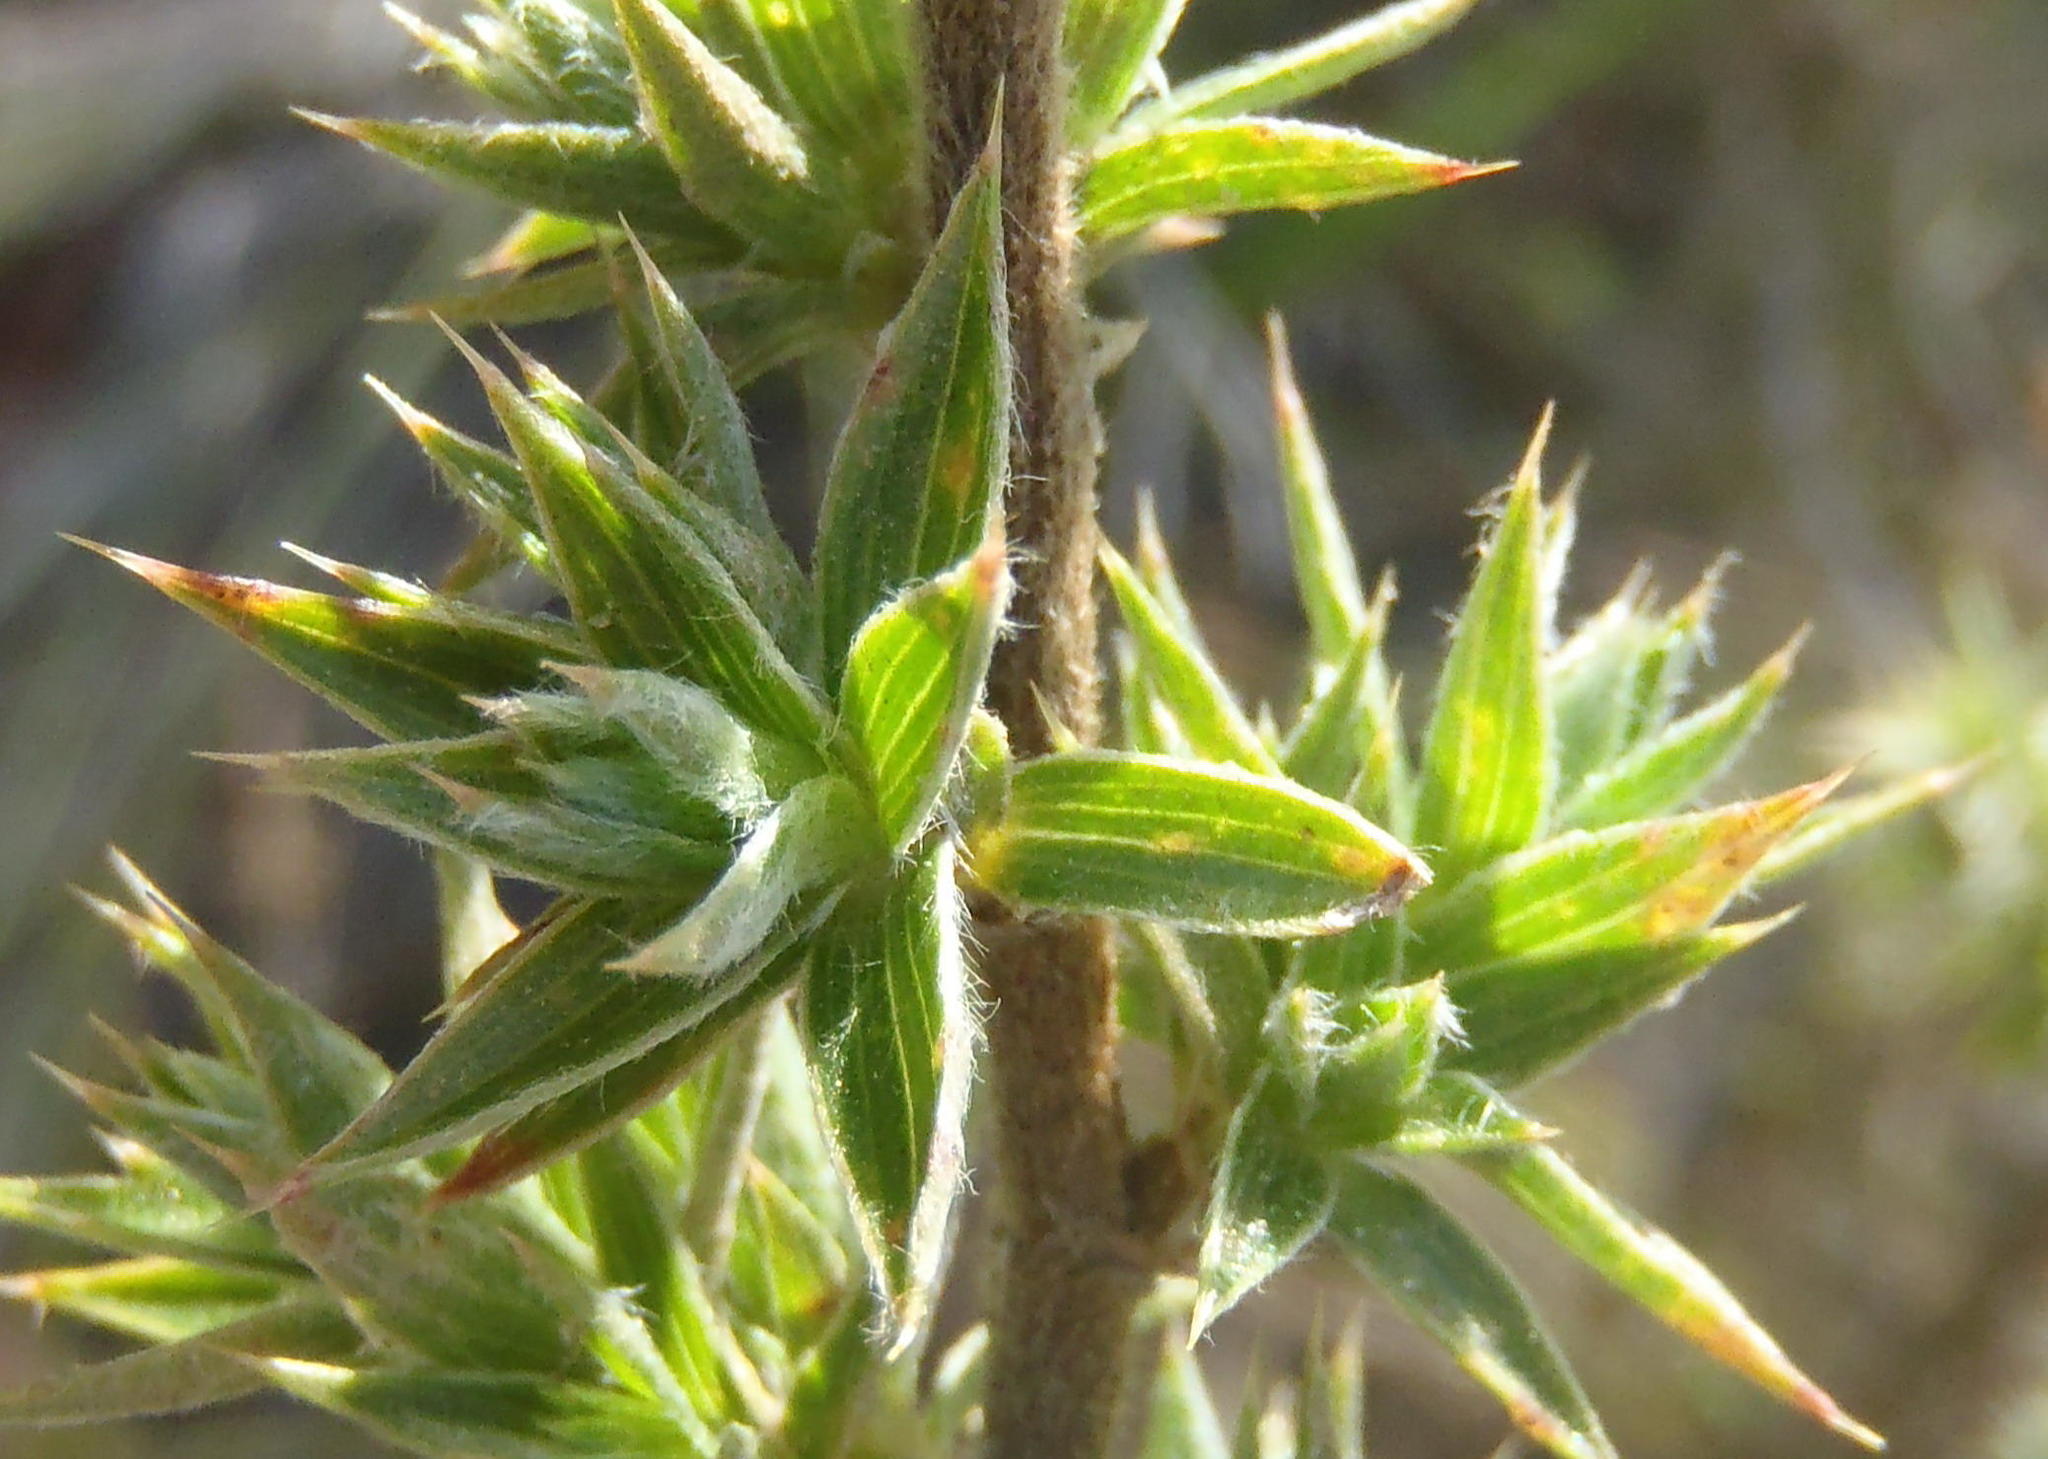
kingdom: Plantae
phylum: Tracheophyta
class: Magnoliopsida
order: Rosales
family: Rosaceae
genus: Cliffortia
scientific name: Cliffortia ruscifolia
